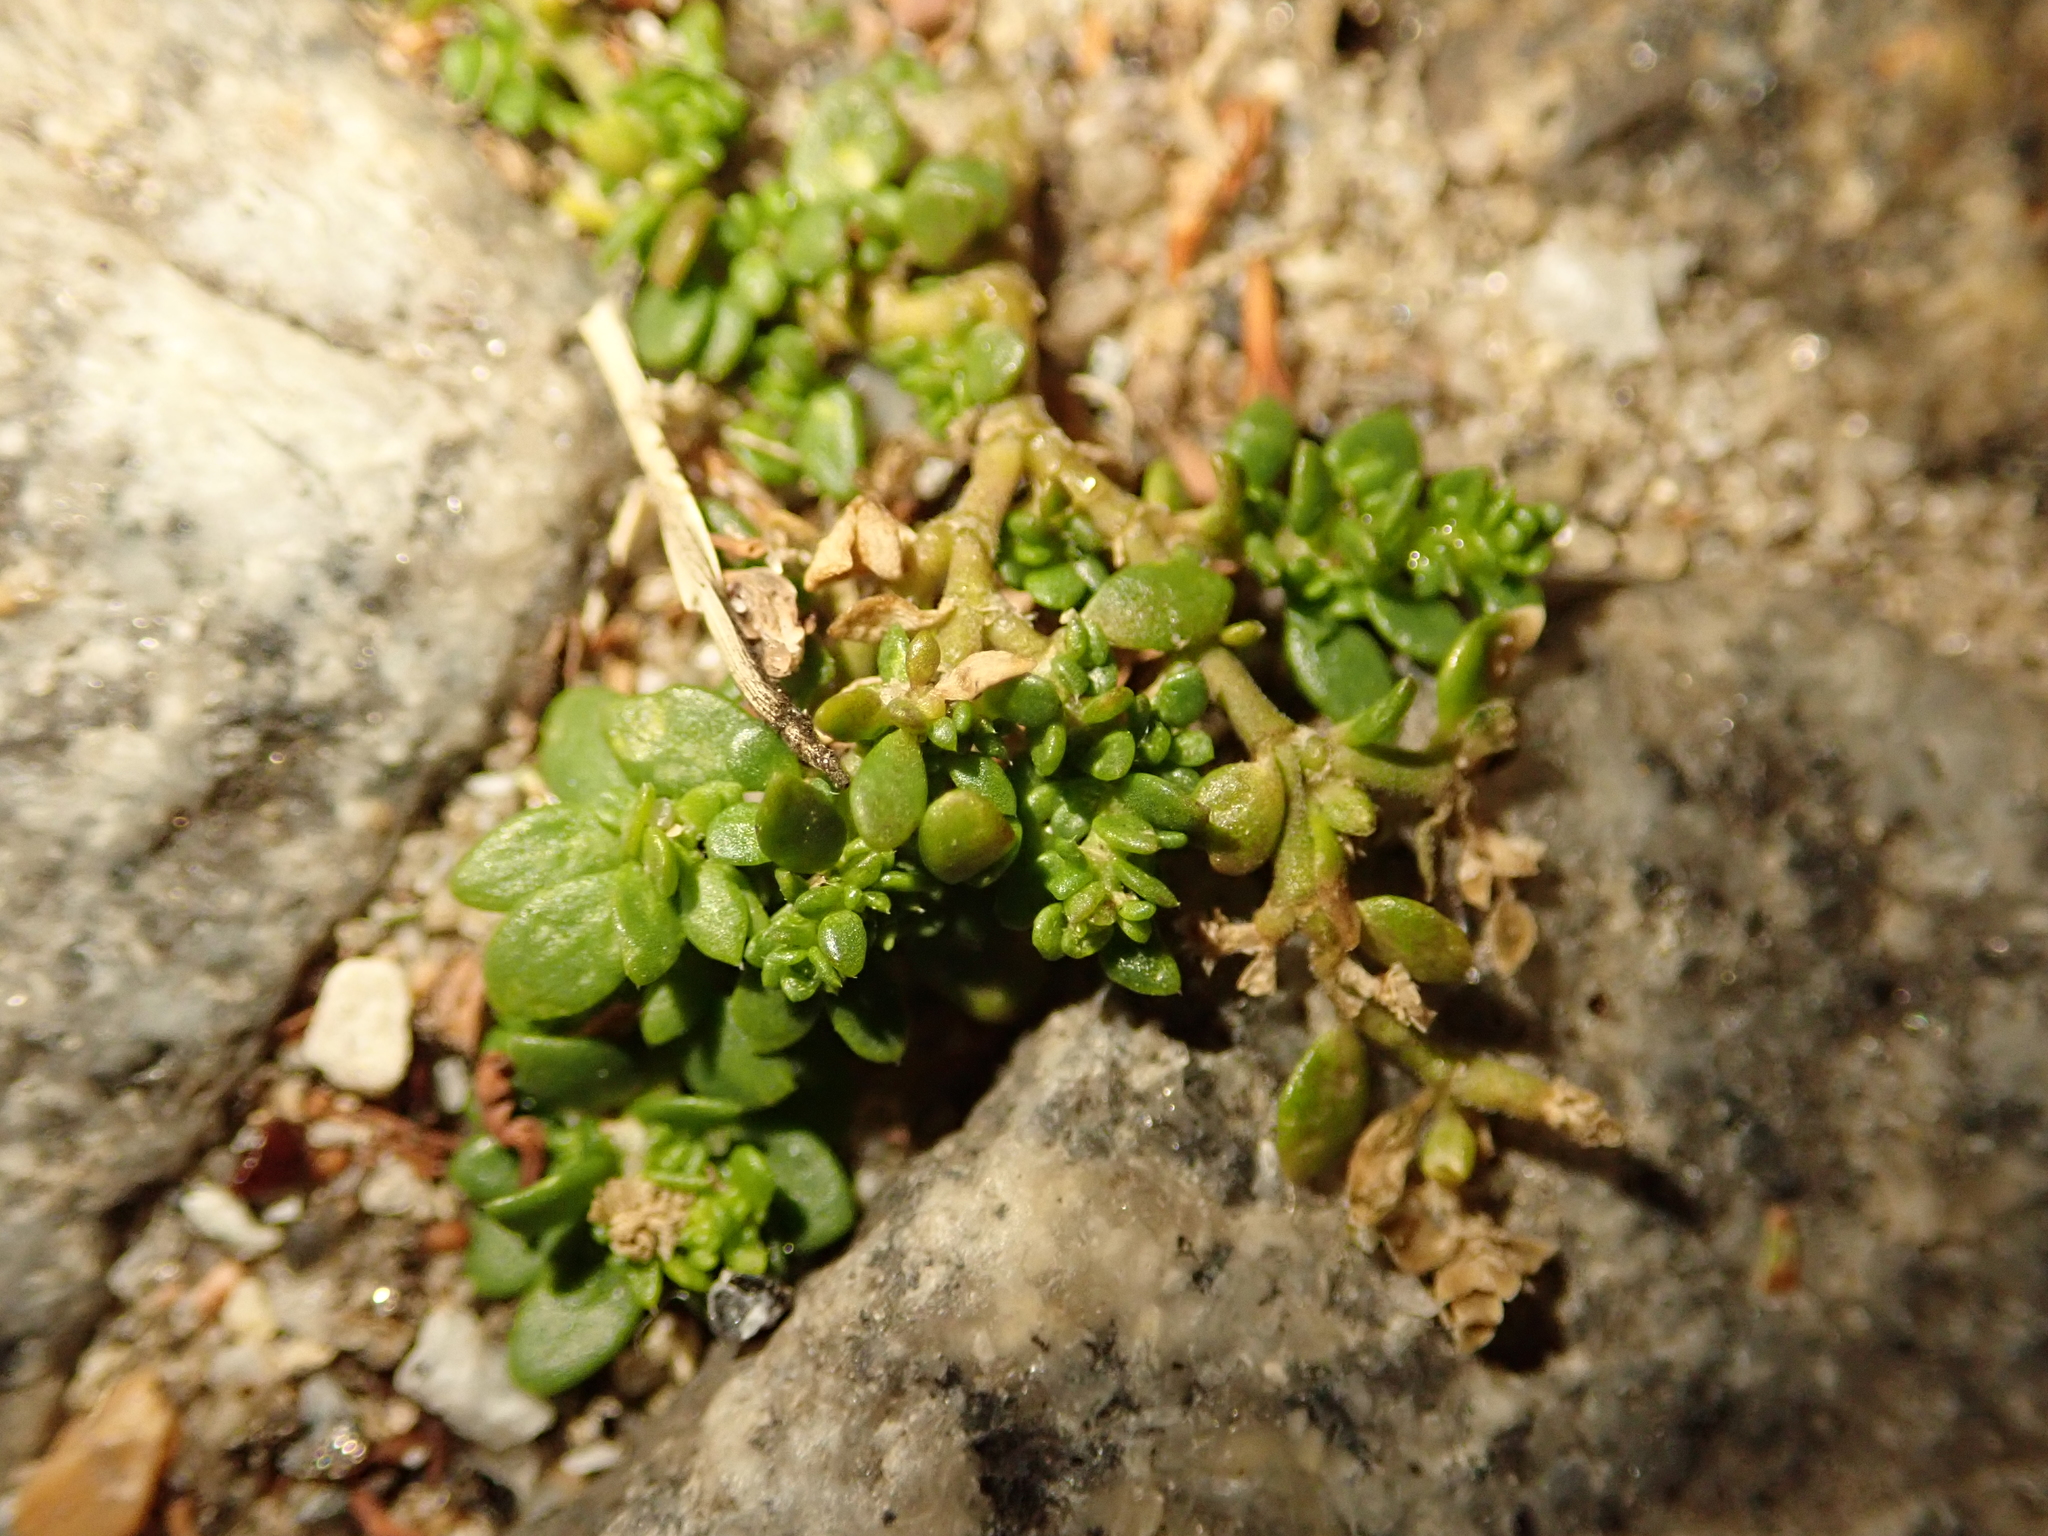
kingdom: Plantae
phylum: Tracheophyta
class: Magnoliopsida
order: Caryophyllales
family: Caryophyllaceae
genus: Herniaria
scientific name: Herniaria glabra
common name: Smooth rupturewort
